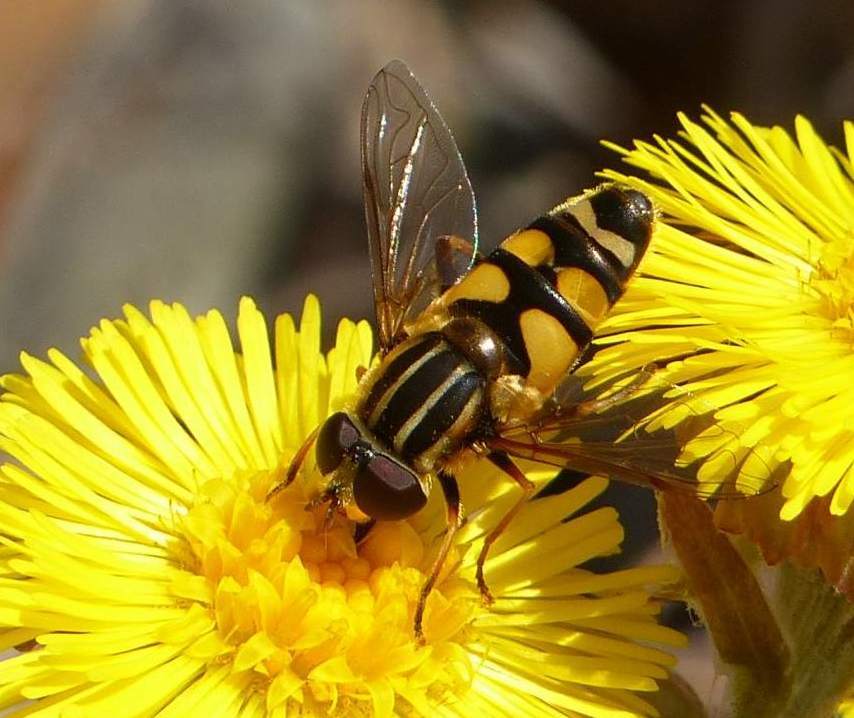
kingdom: Animalia
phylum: Arthropoda
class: Insecta
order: Diptera
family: Syrphidae
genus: Helophilus
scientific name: Helophilus fasciatus
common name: Narrow-headed marsh fly
